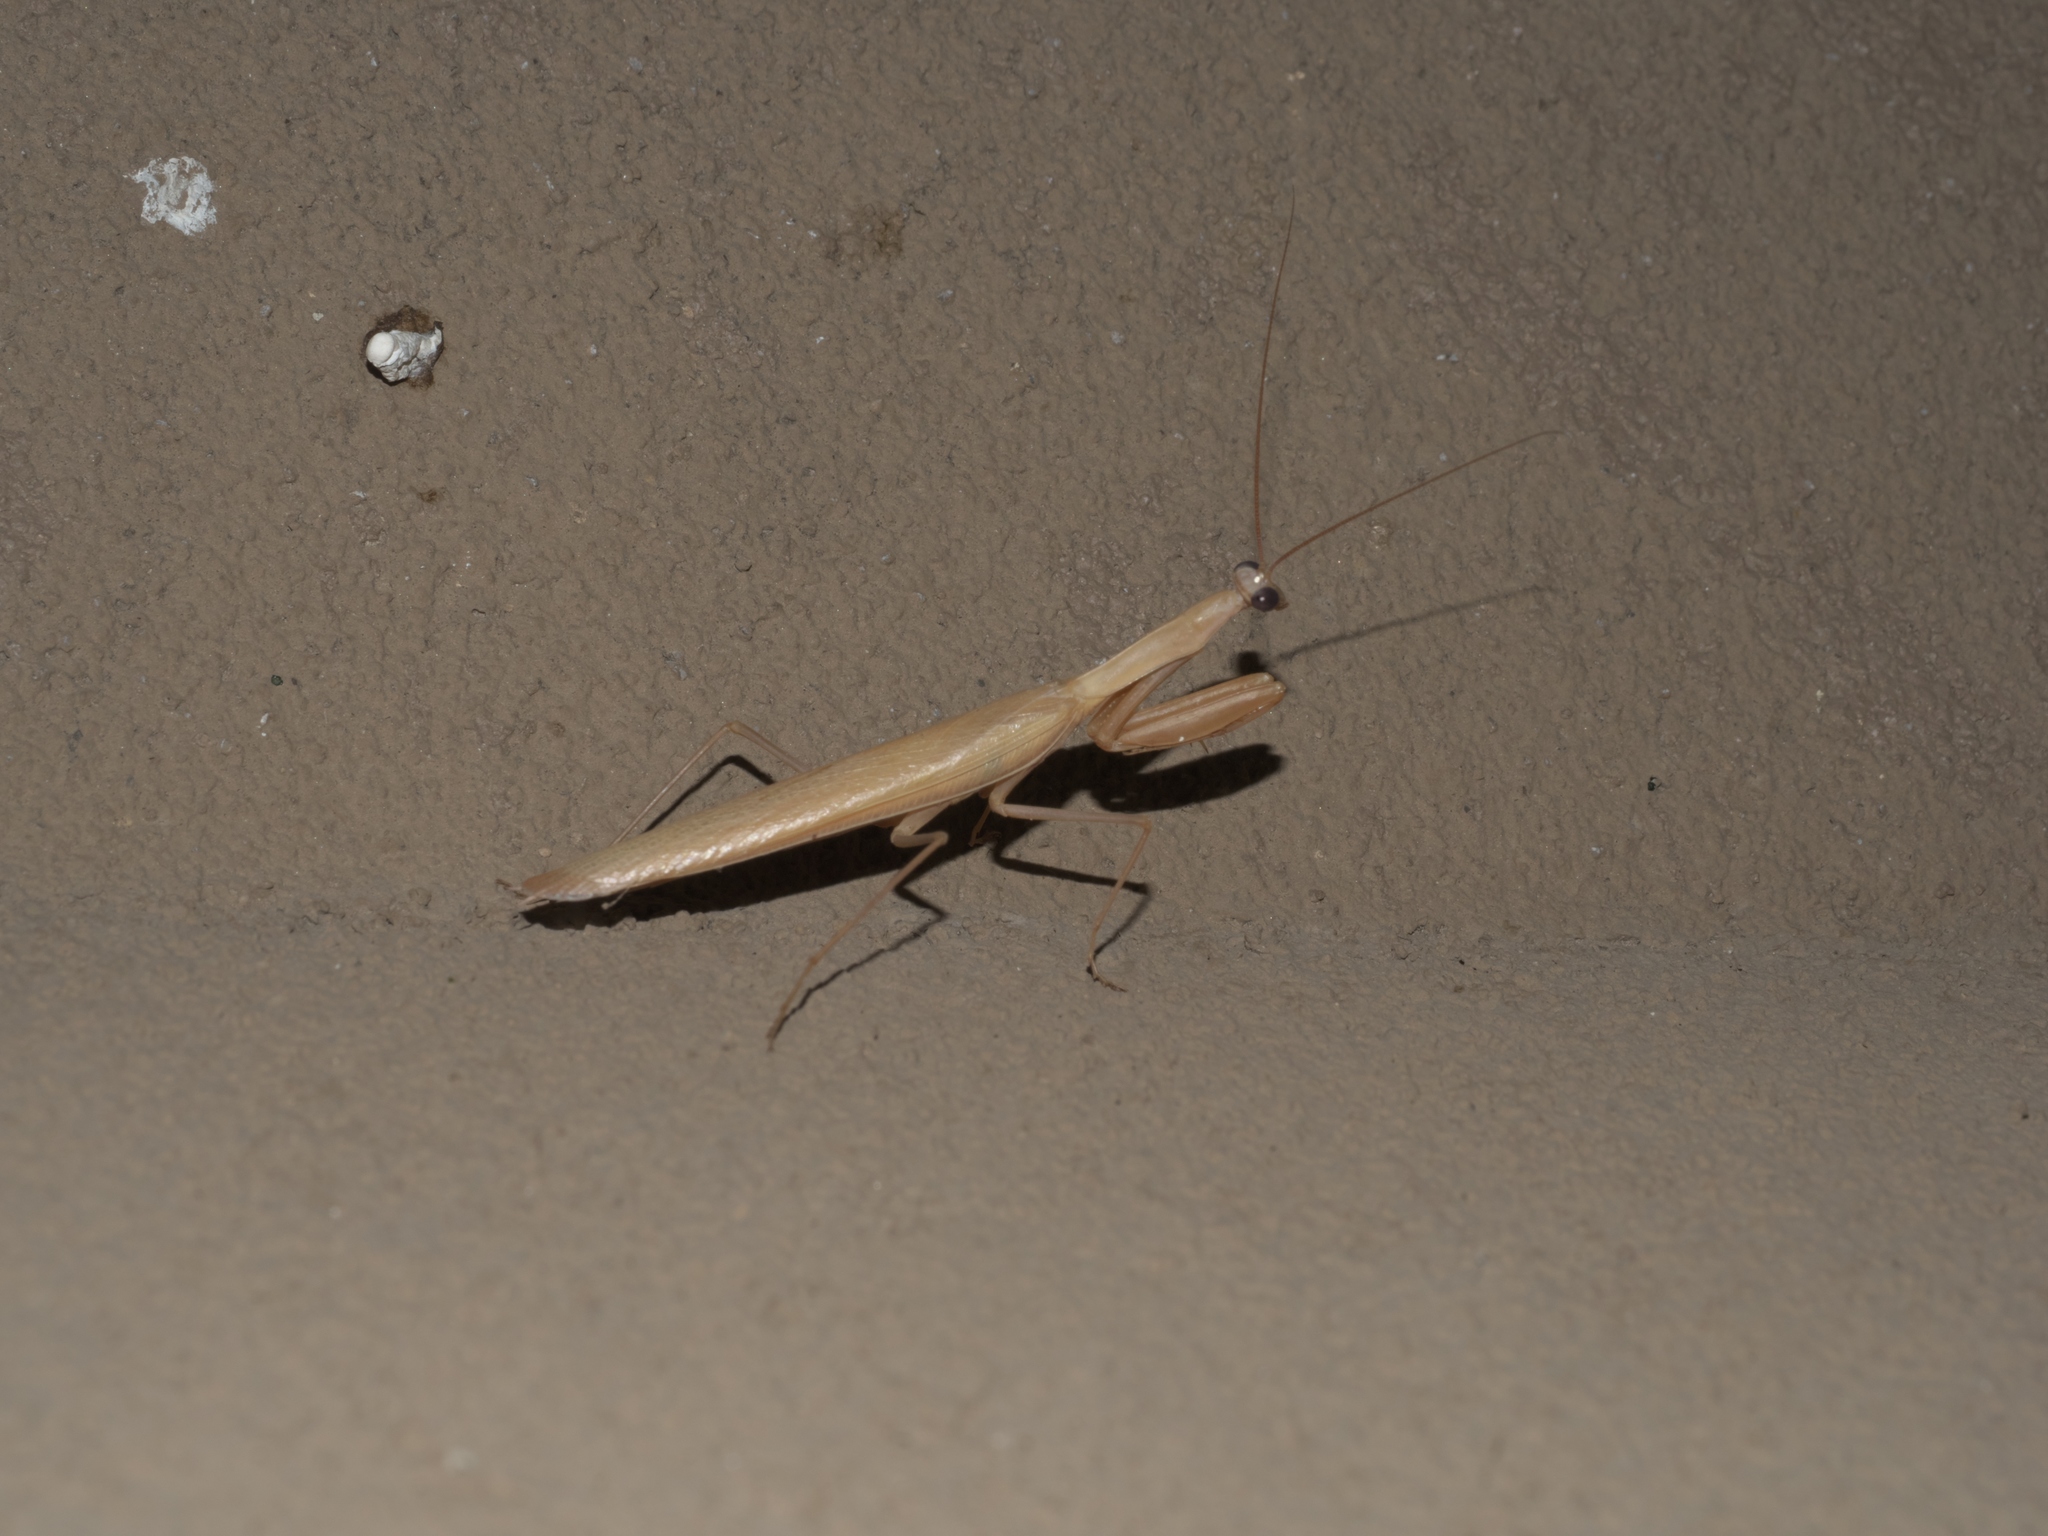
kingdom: Animalia
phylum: Arthropoda
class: Insecta
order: Mantodea
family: Mantidae
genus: Mantis
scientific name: Mantis religiosa
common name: Praying mantis
